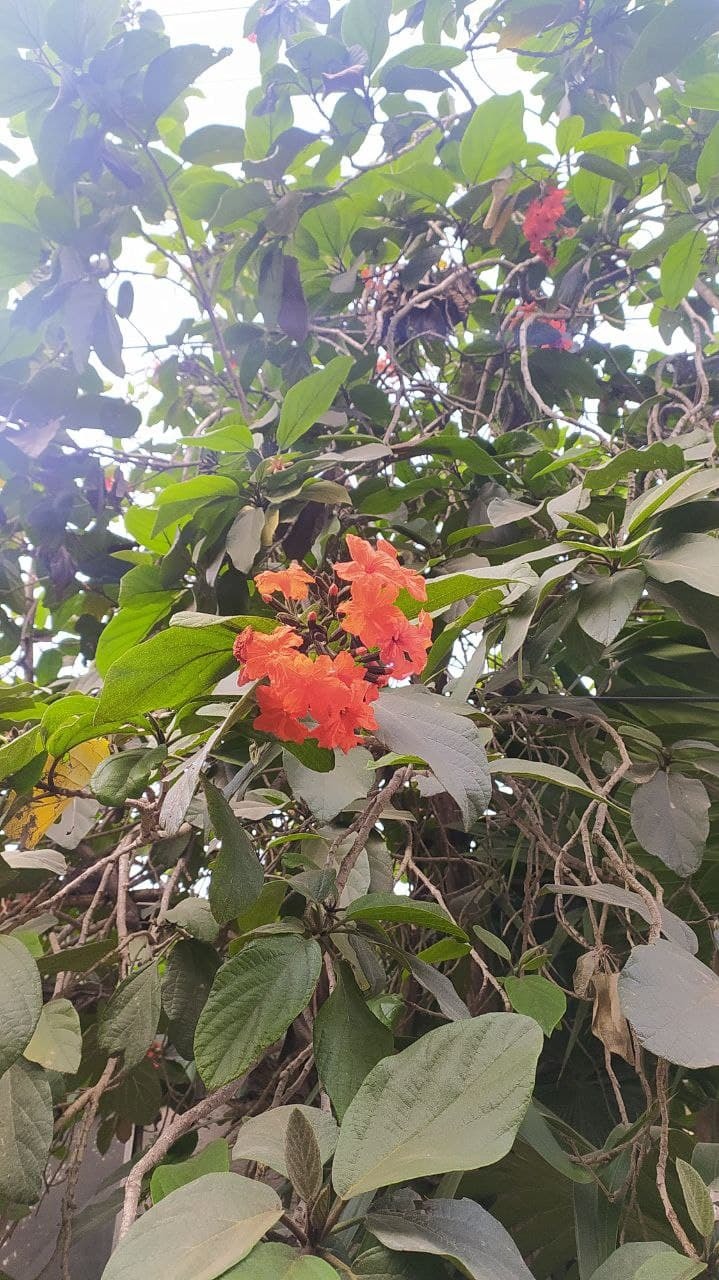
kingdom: Plantae
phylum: Tracheophyta
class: Magnoliopsida
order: Boraginales
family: Cordiaceae
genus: Cordia
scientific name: Cordia sebestena
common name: Largeleaf geigertree
